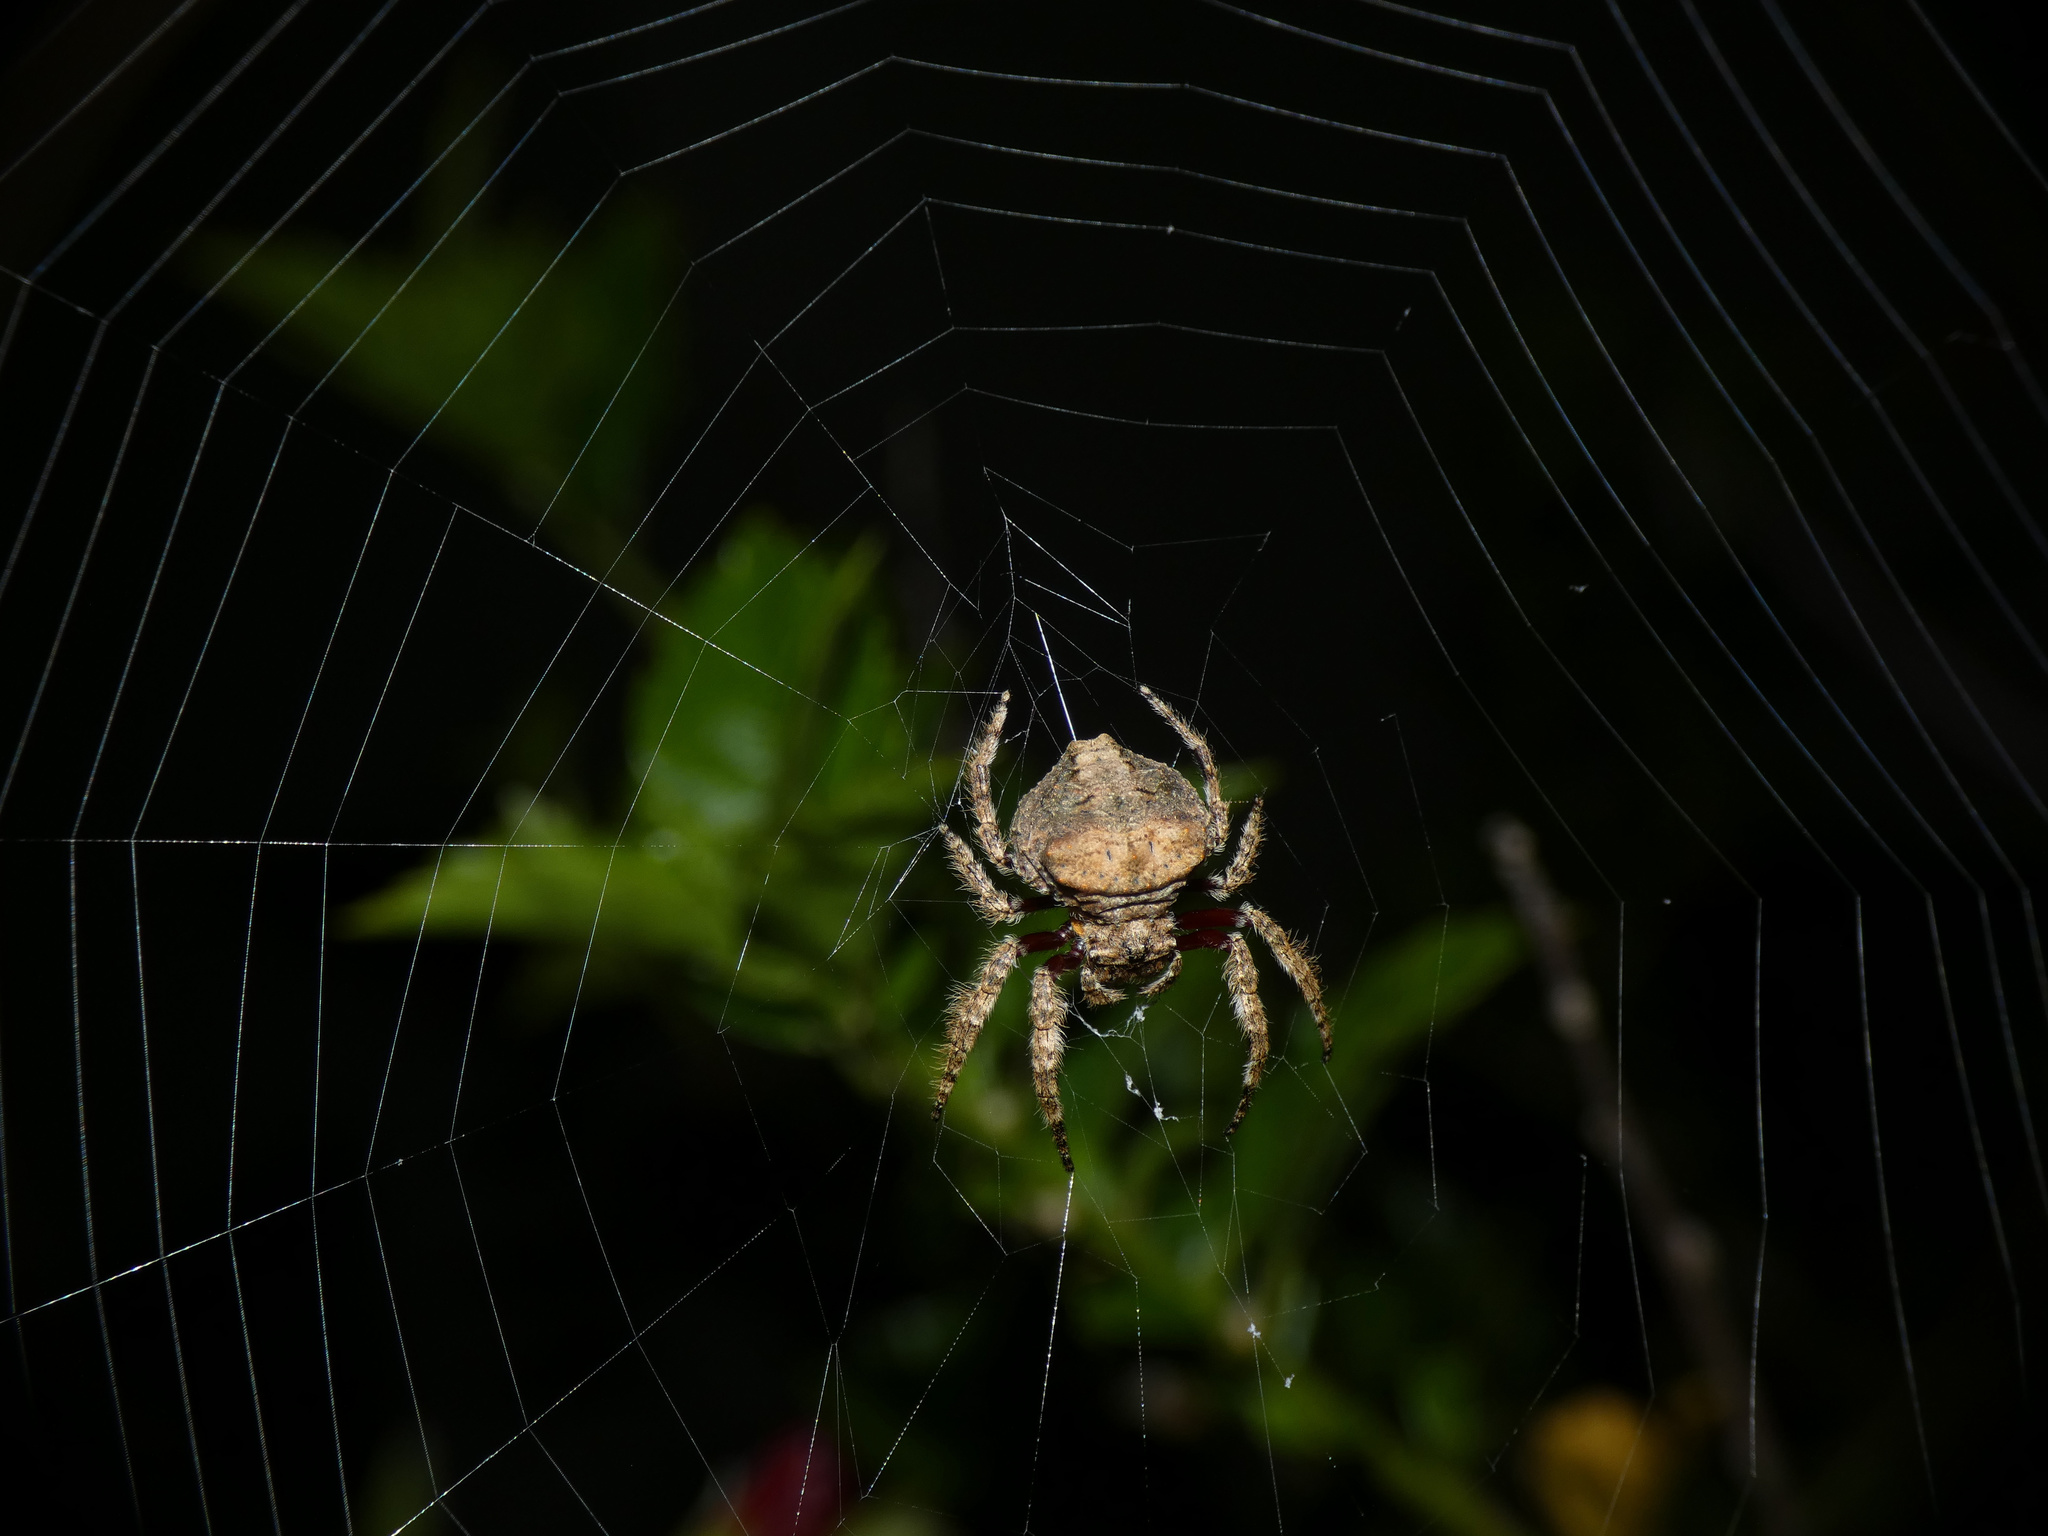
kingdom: Animalia
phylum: Arthropoda
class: Arachnida
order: Araneae
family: Araneidae
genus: Caerostris
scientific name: Caerostris sexcuspidata
